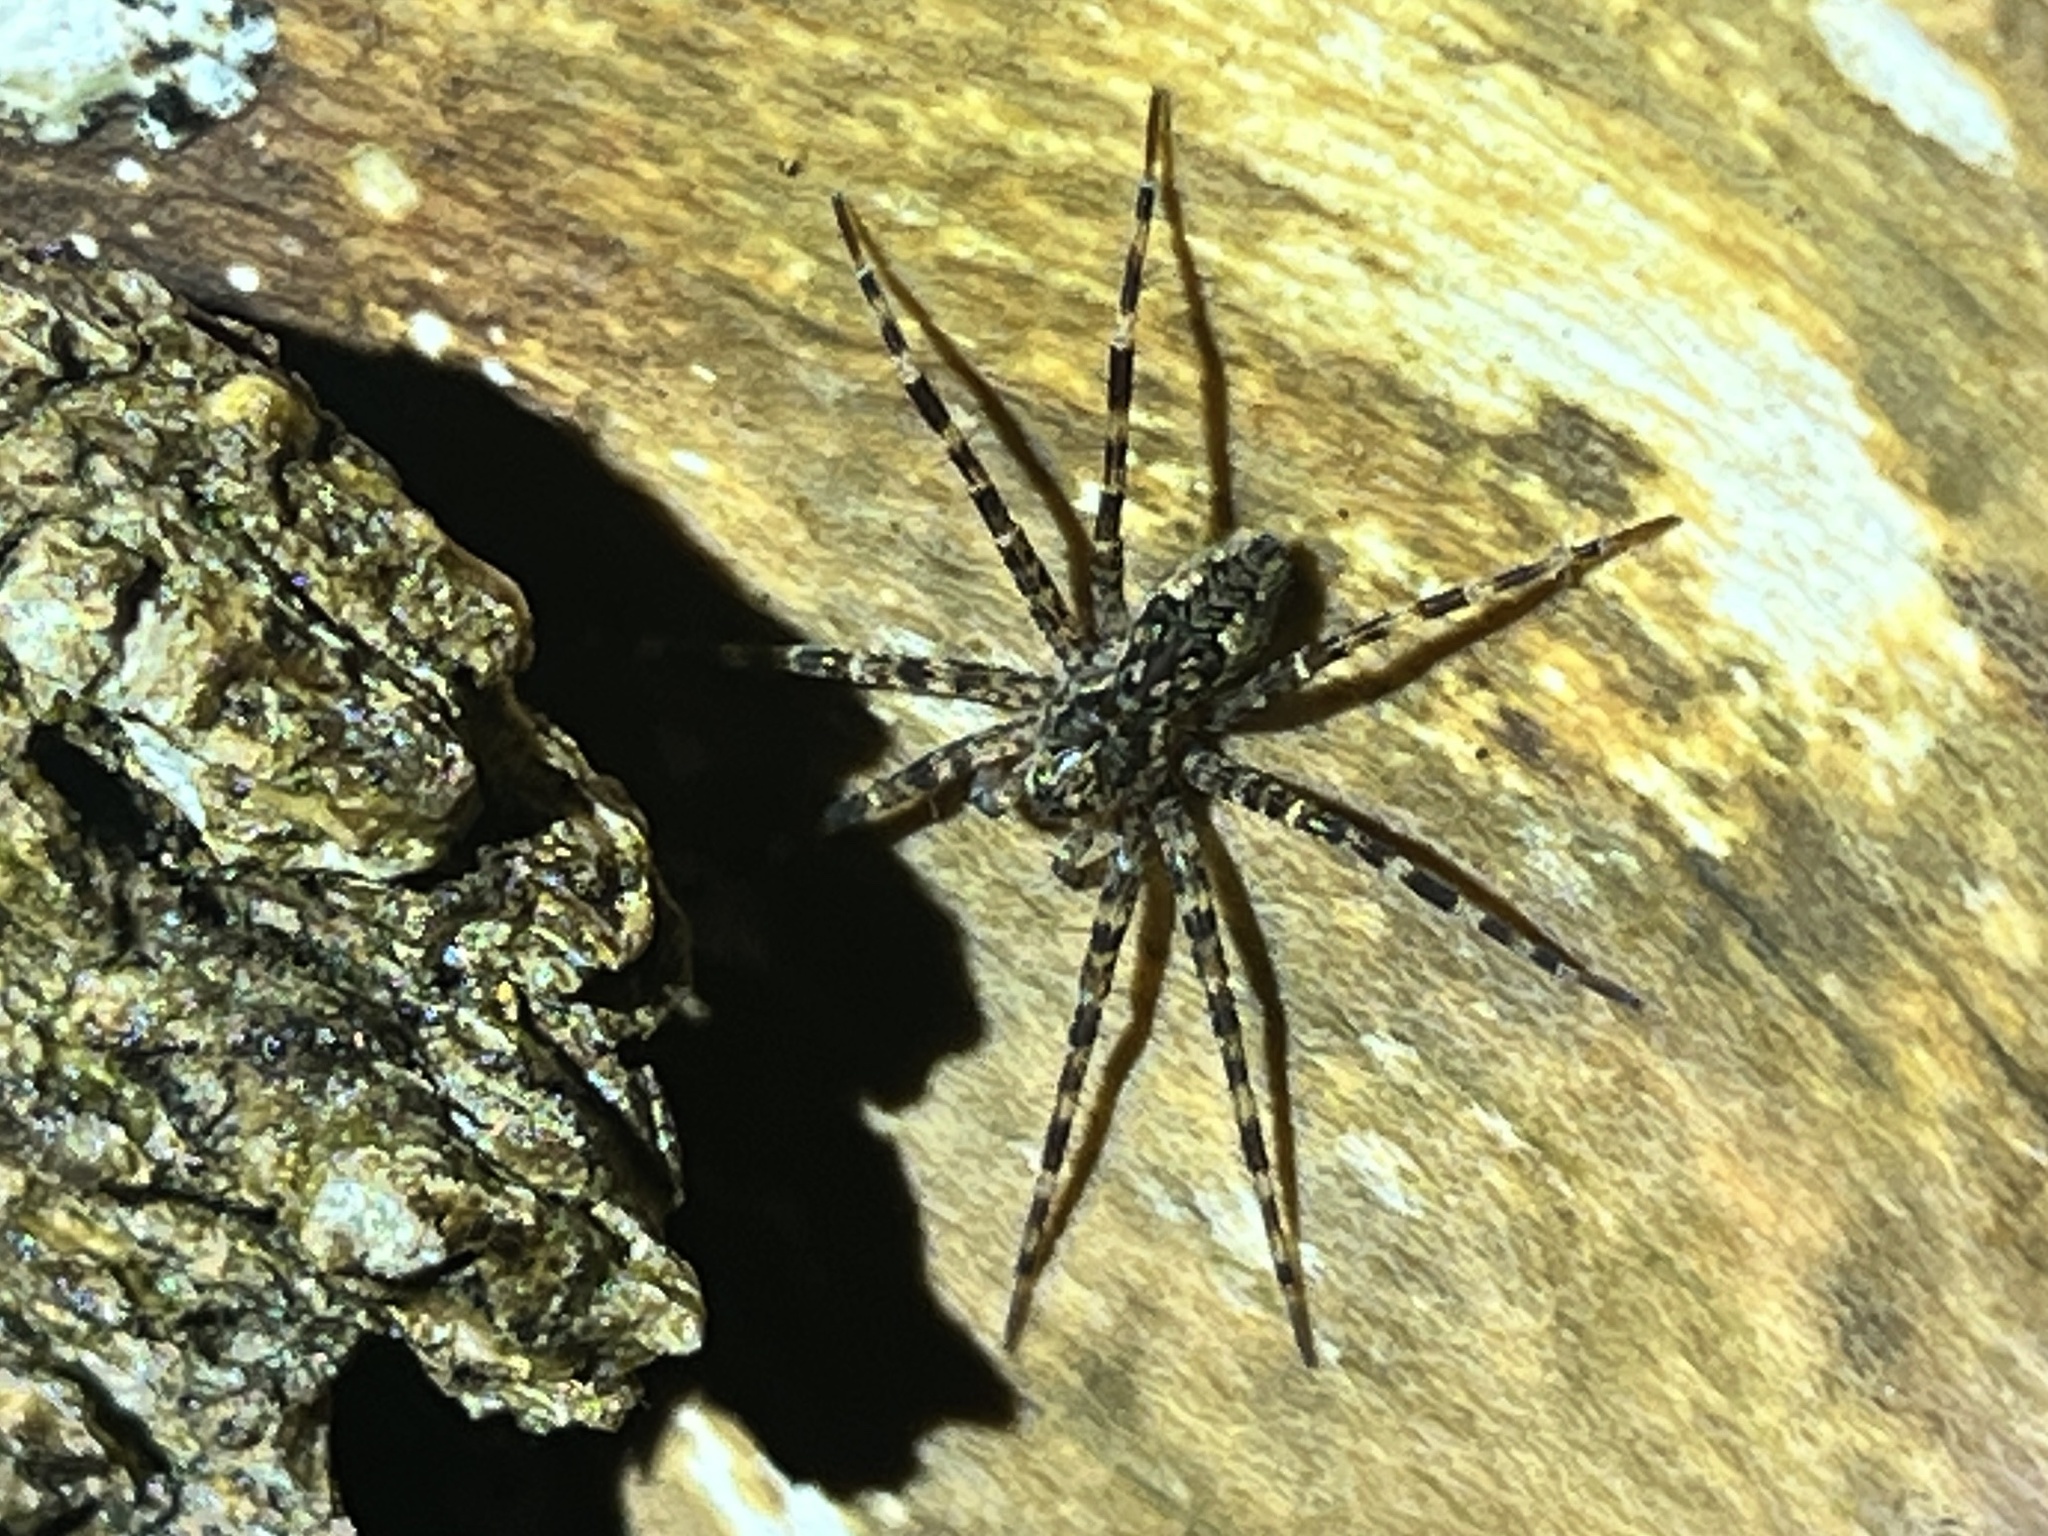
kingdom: Animalia
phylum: Arthropoda
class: Arachnida
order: Araneae
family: Pisauridae
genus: Dolomedes
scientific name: Dolomedes tenebrosus
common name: Dark fishing spider
